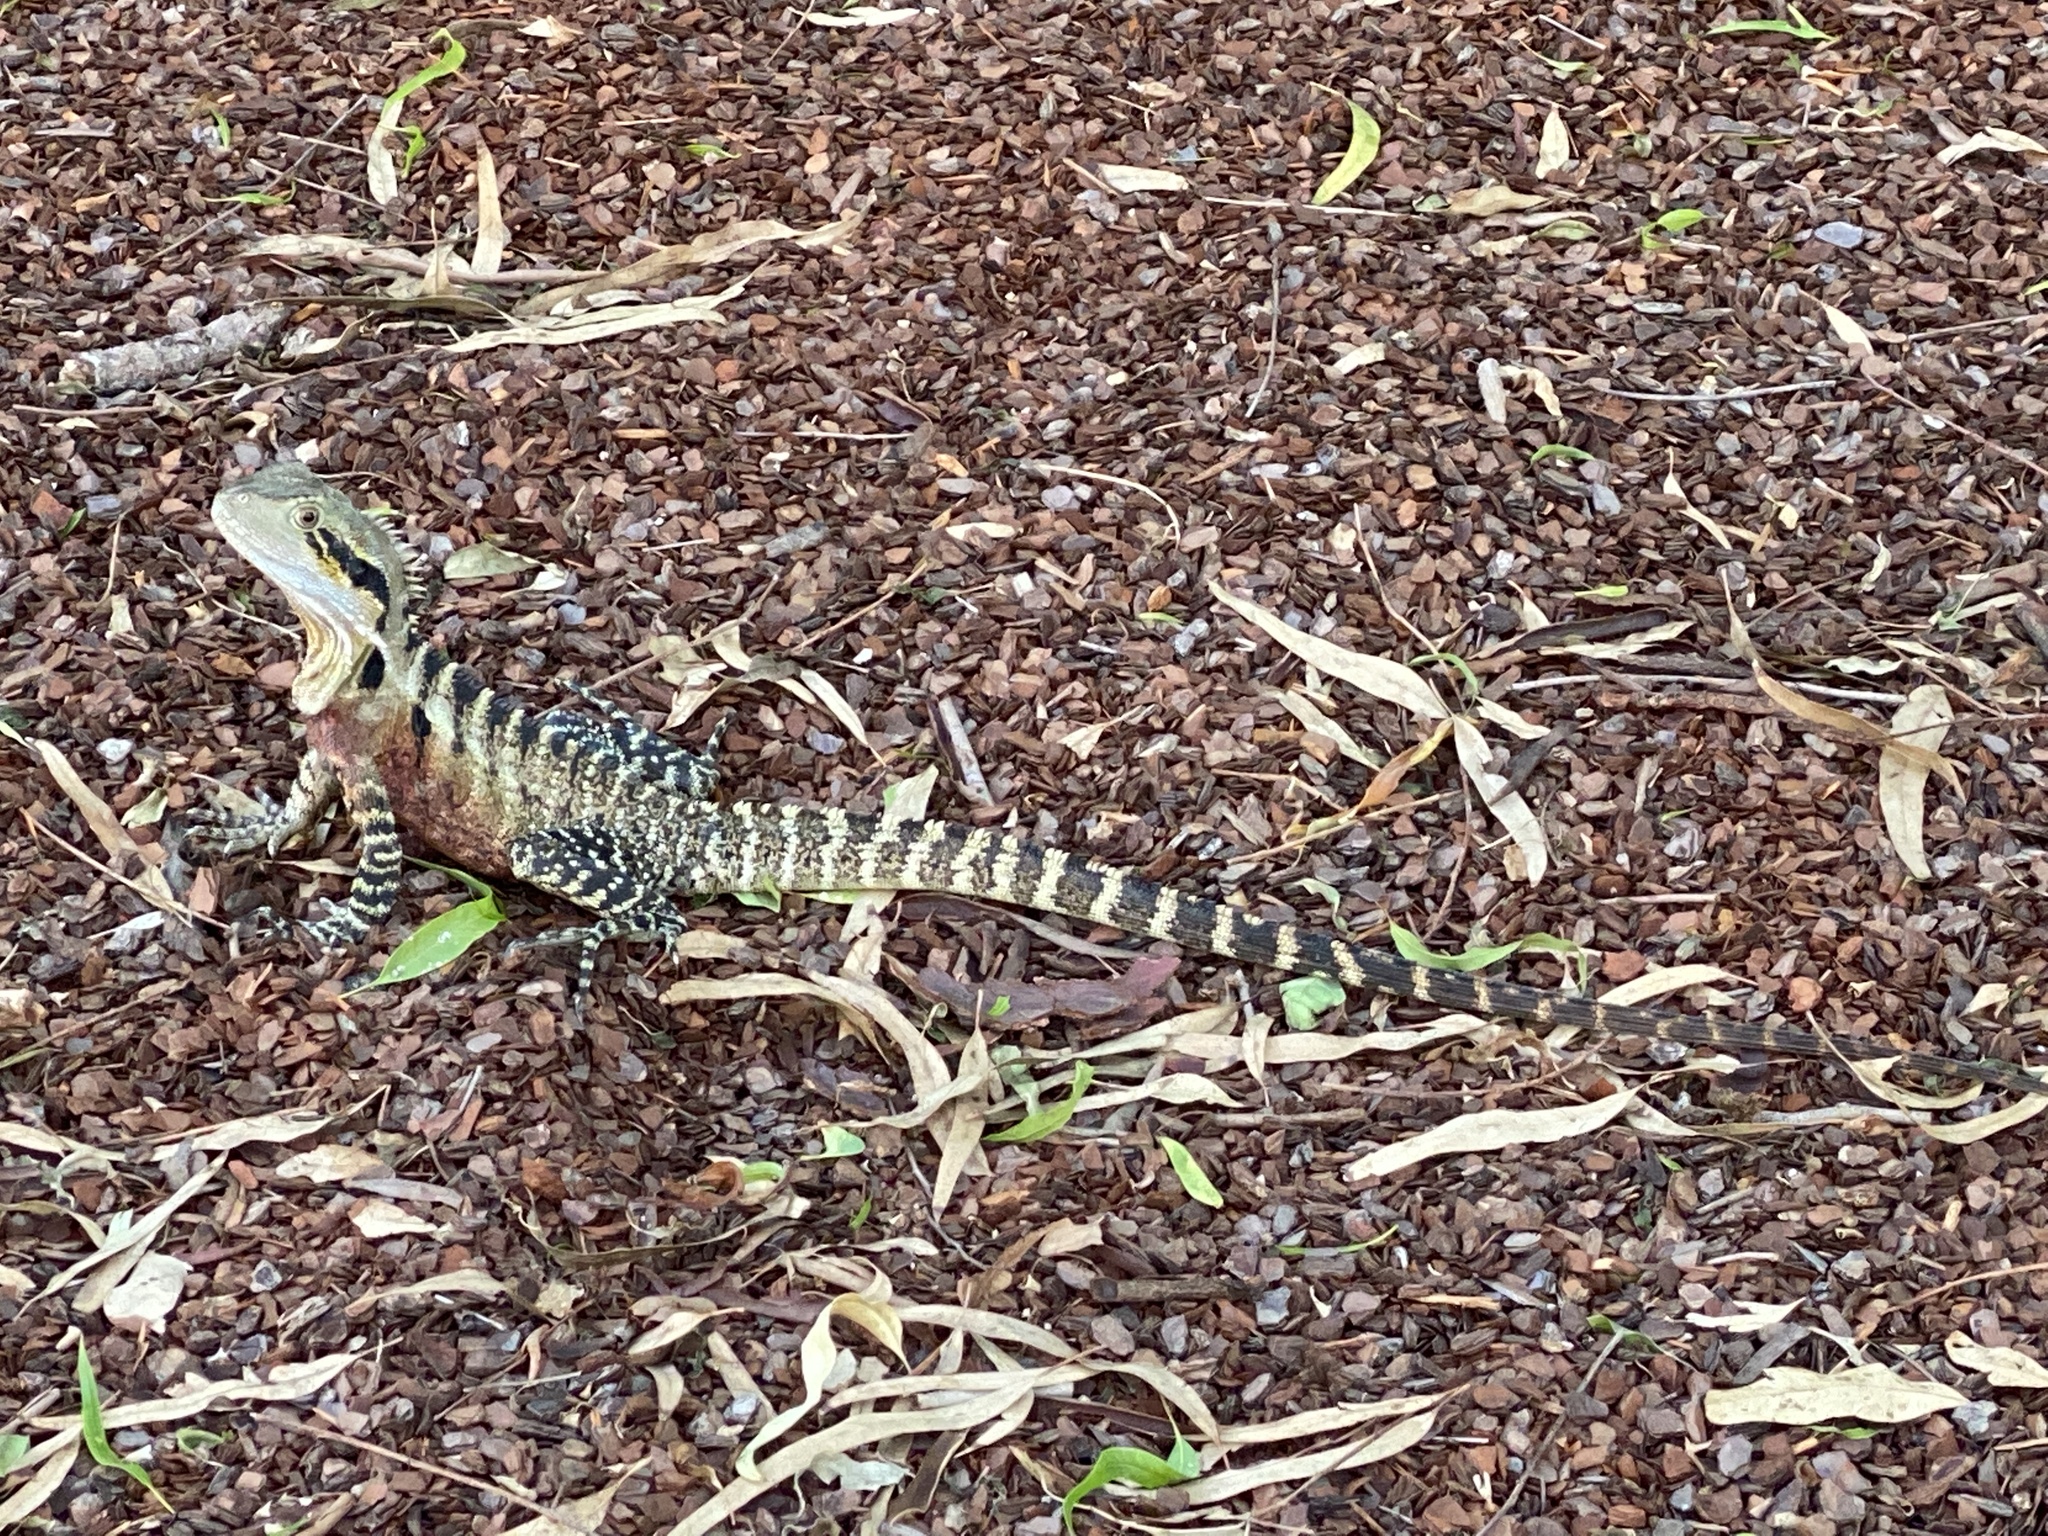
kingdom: Animalia
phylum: Chordata
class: Squamata
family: Agamidae
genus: Intellagama
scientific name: Intellagama lesueurii
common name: Eastern water dragon
